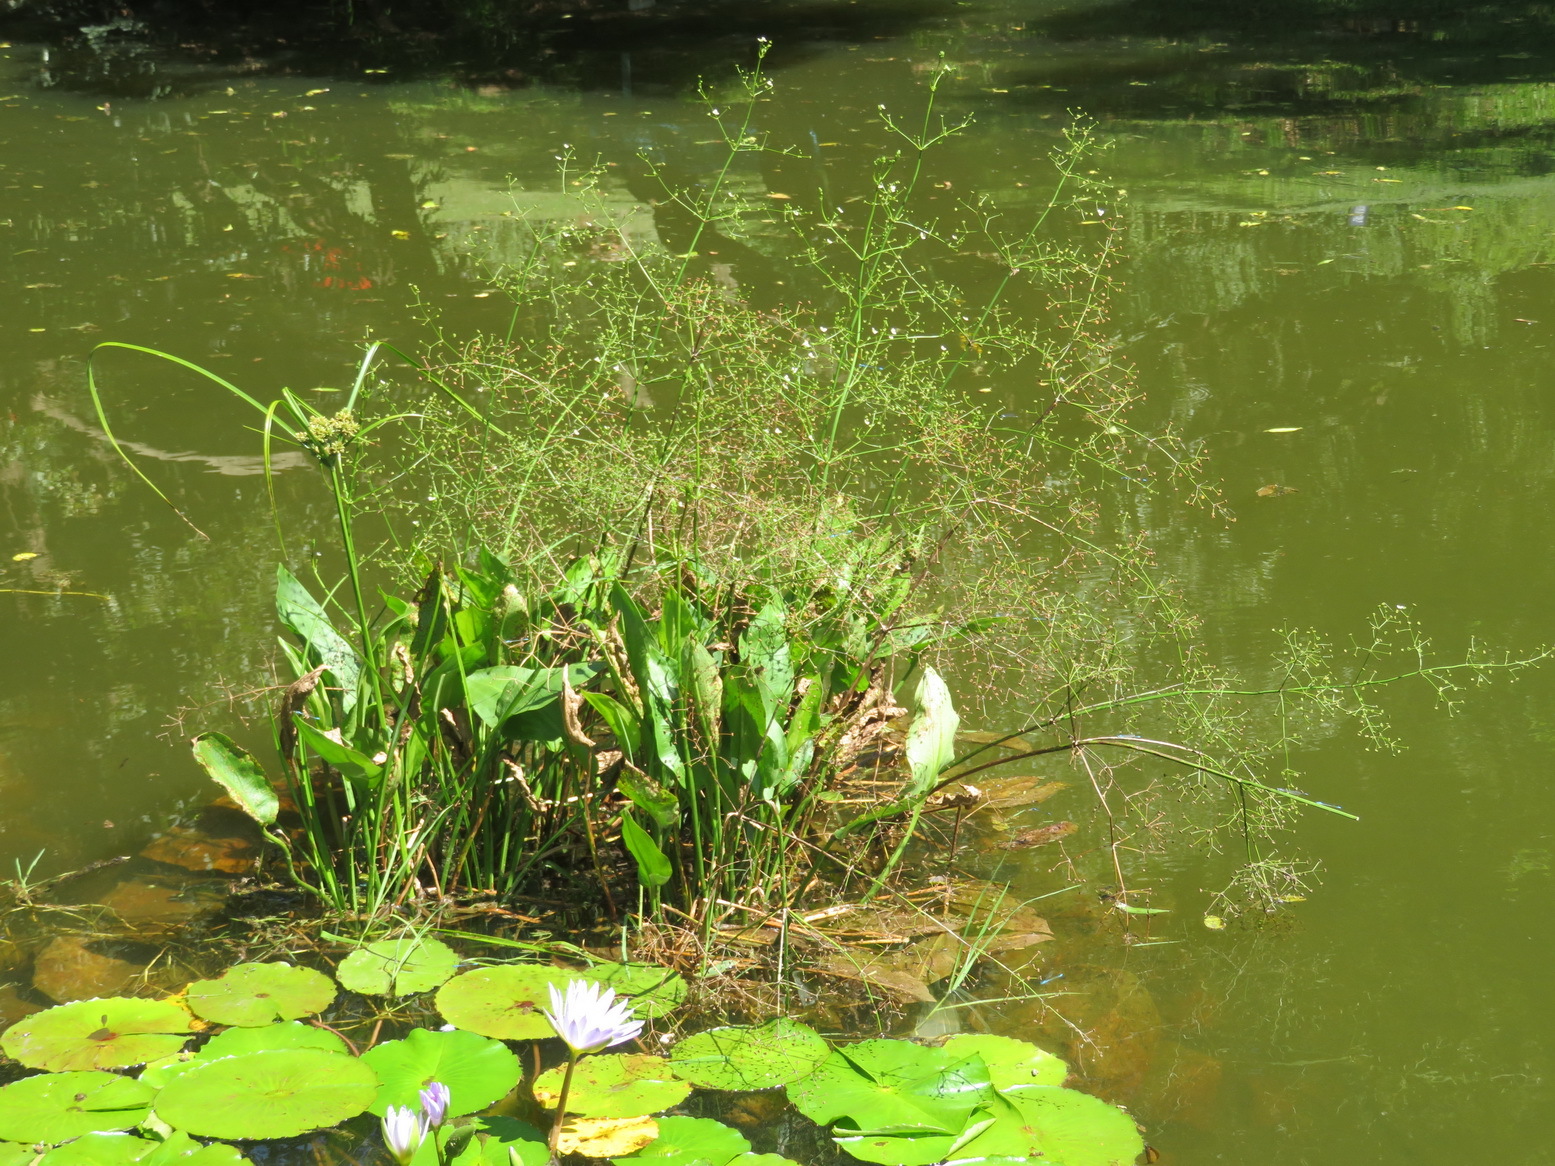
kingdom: Plantae
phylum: Tracheophyta
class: Liliopsida
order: Alismatales
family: Alismataceae
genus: Alisma
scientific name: Alisma plantago-aquatica
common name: Water-plantain
